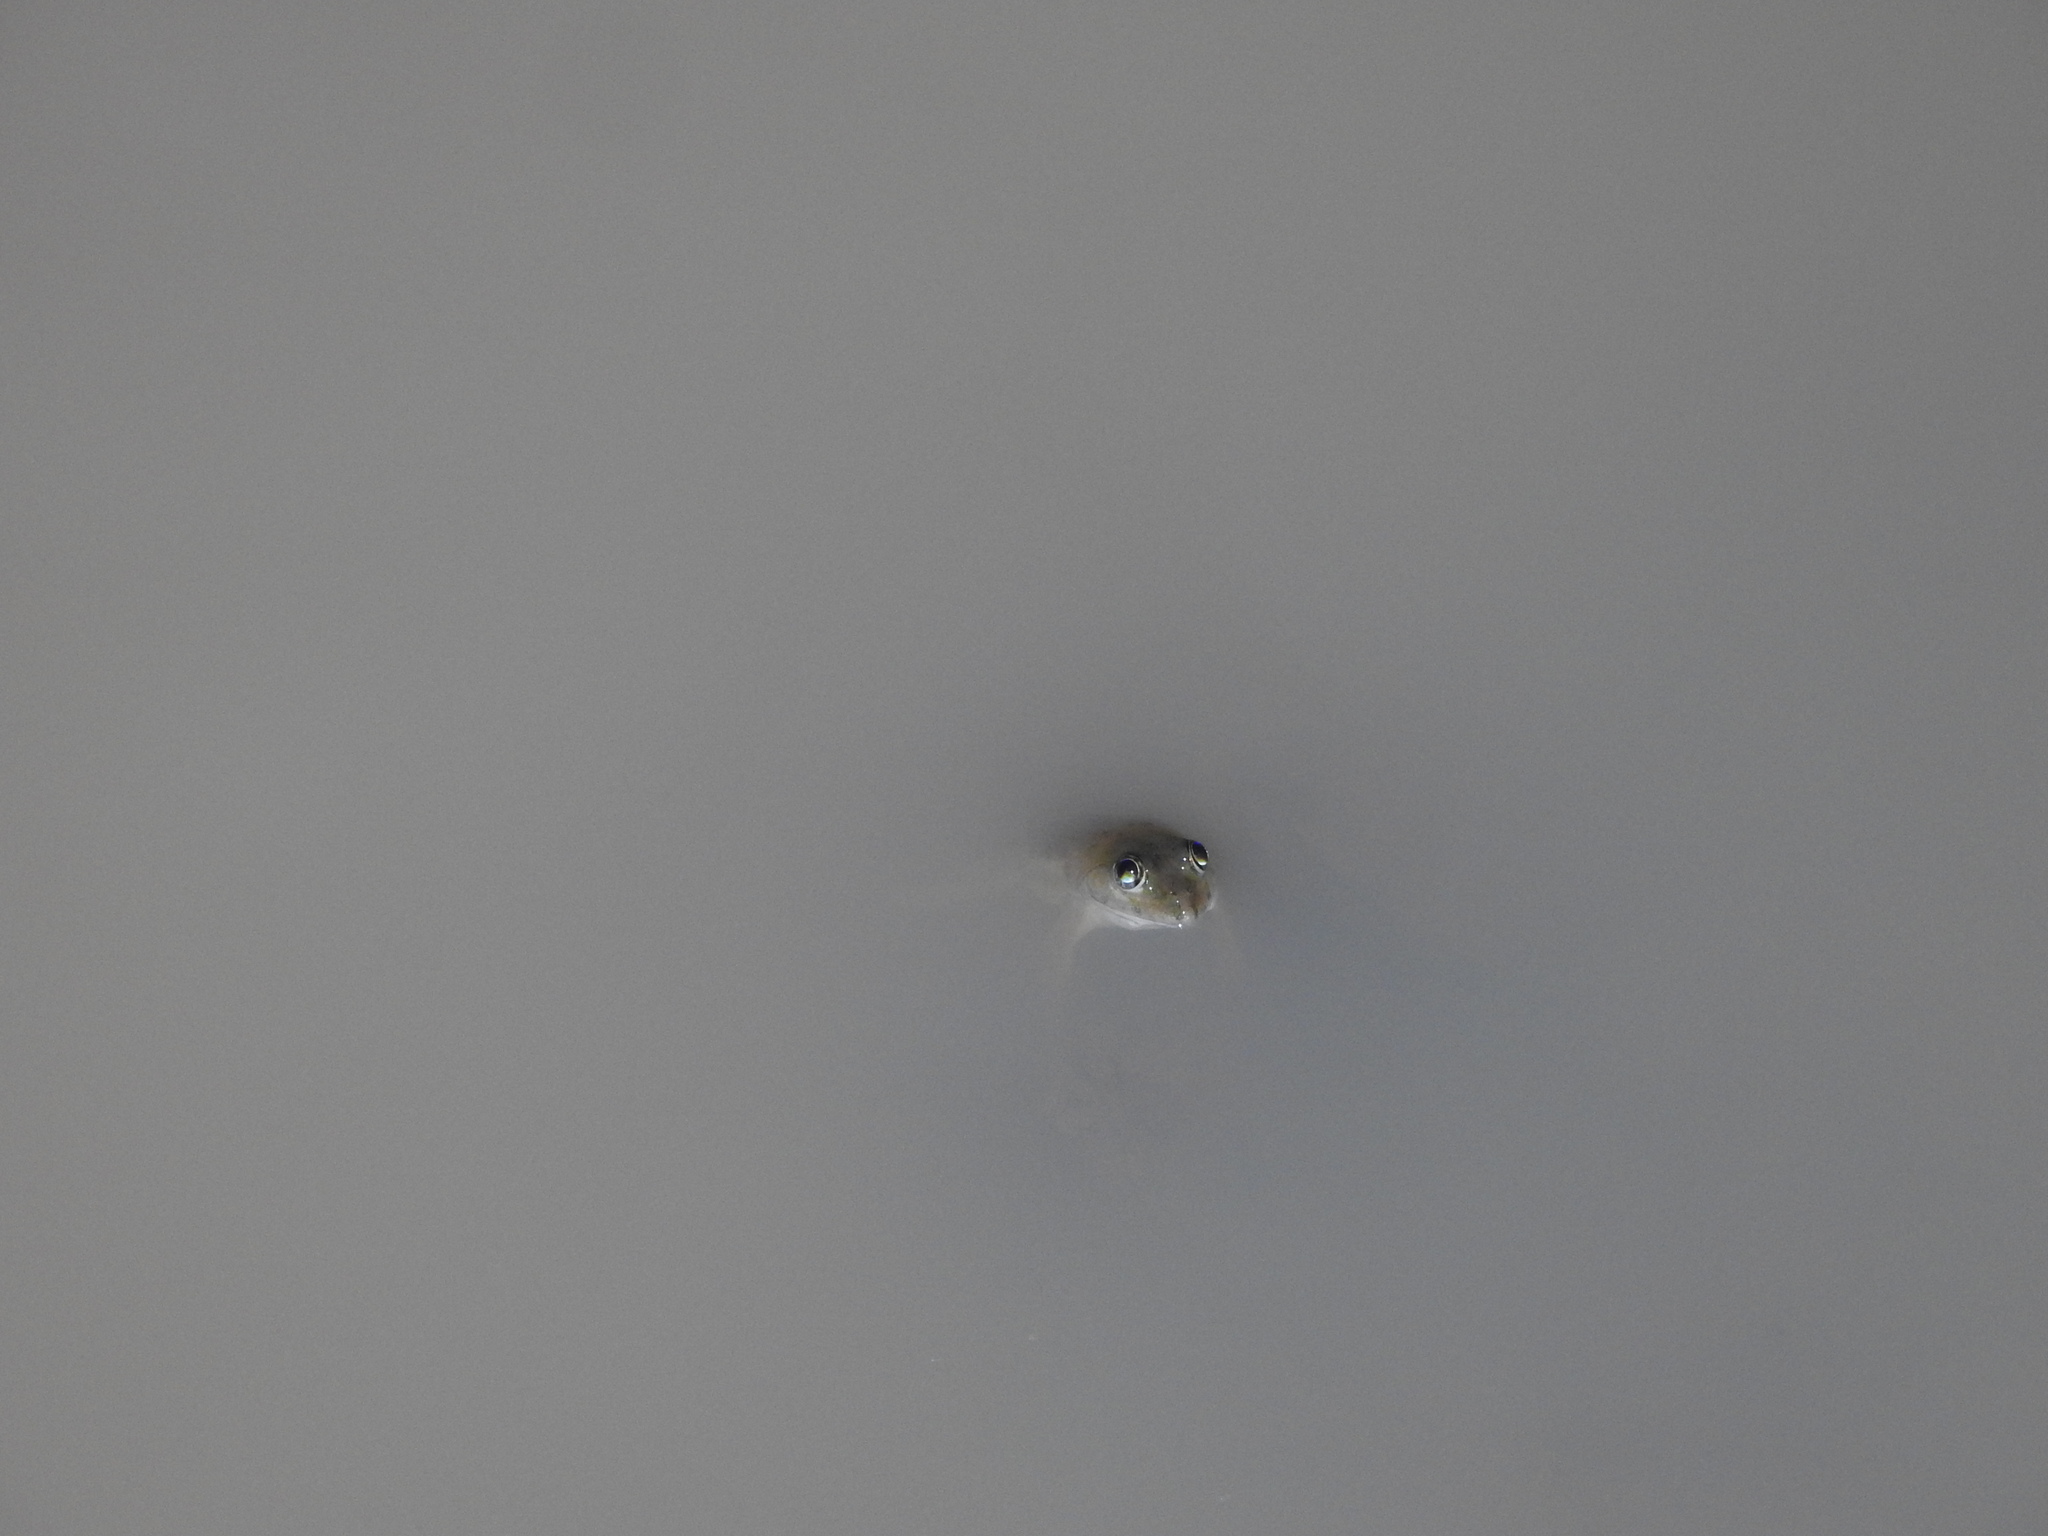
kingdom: Animalia
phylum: Chordata
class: Amphibia
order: Anura
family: Dicroglossidae
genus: Euphlyctis
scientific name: Euphlyctis cyanophlyctis
